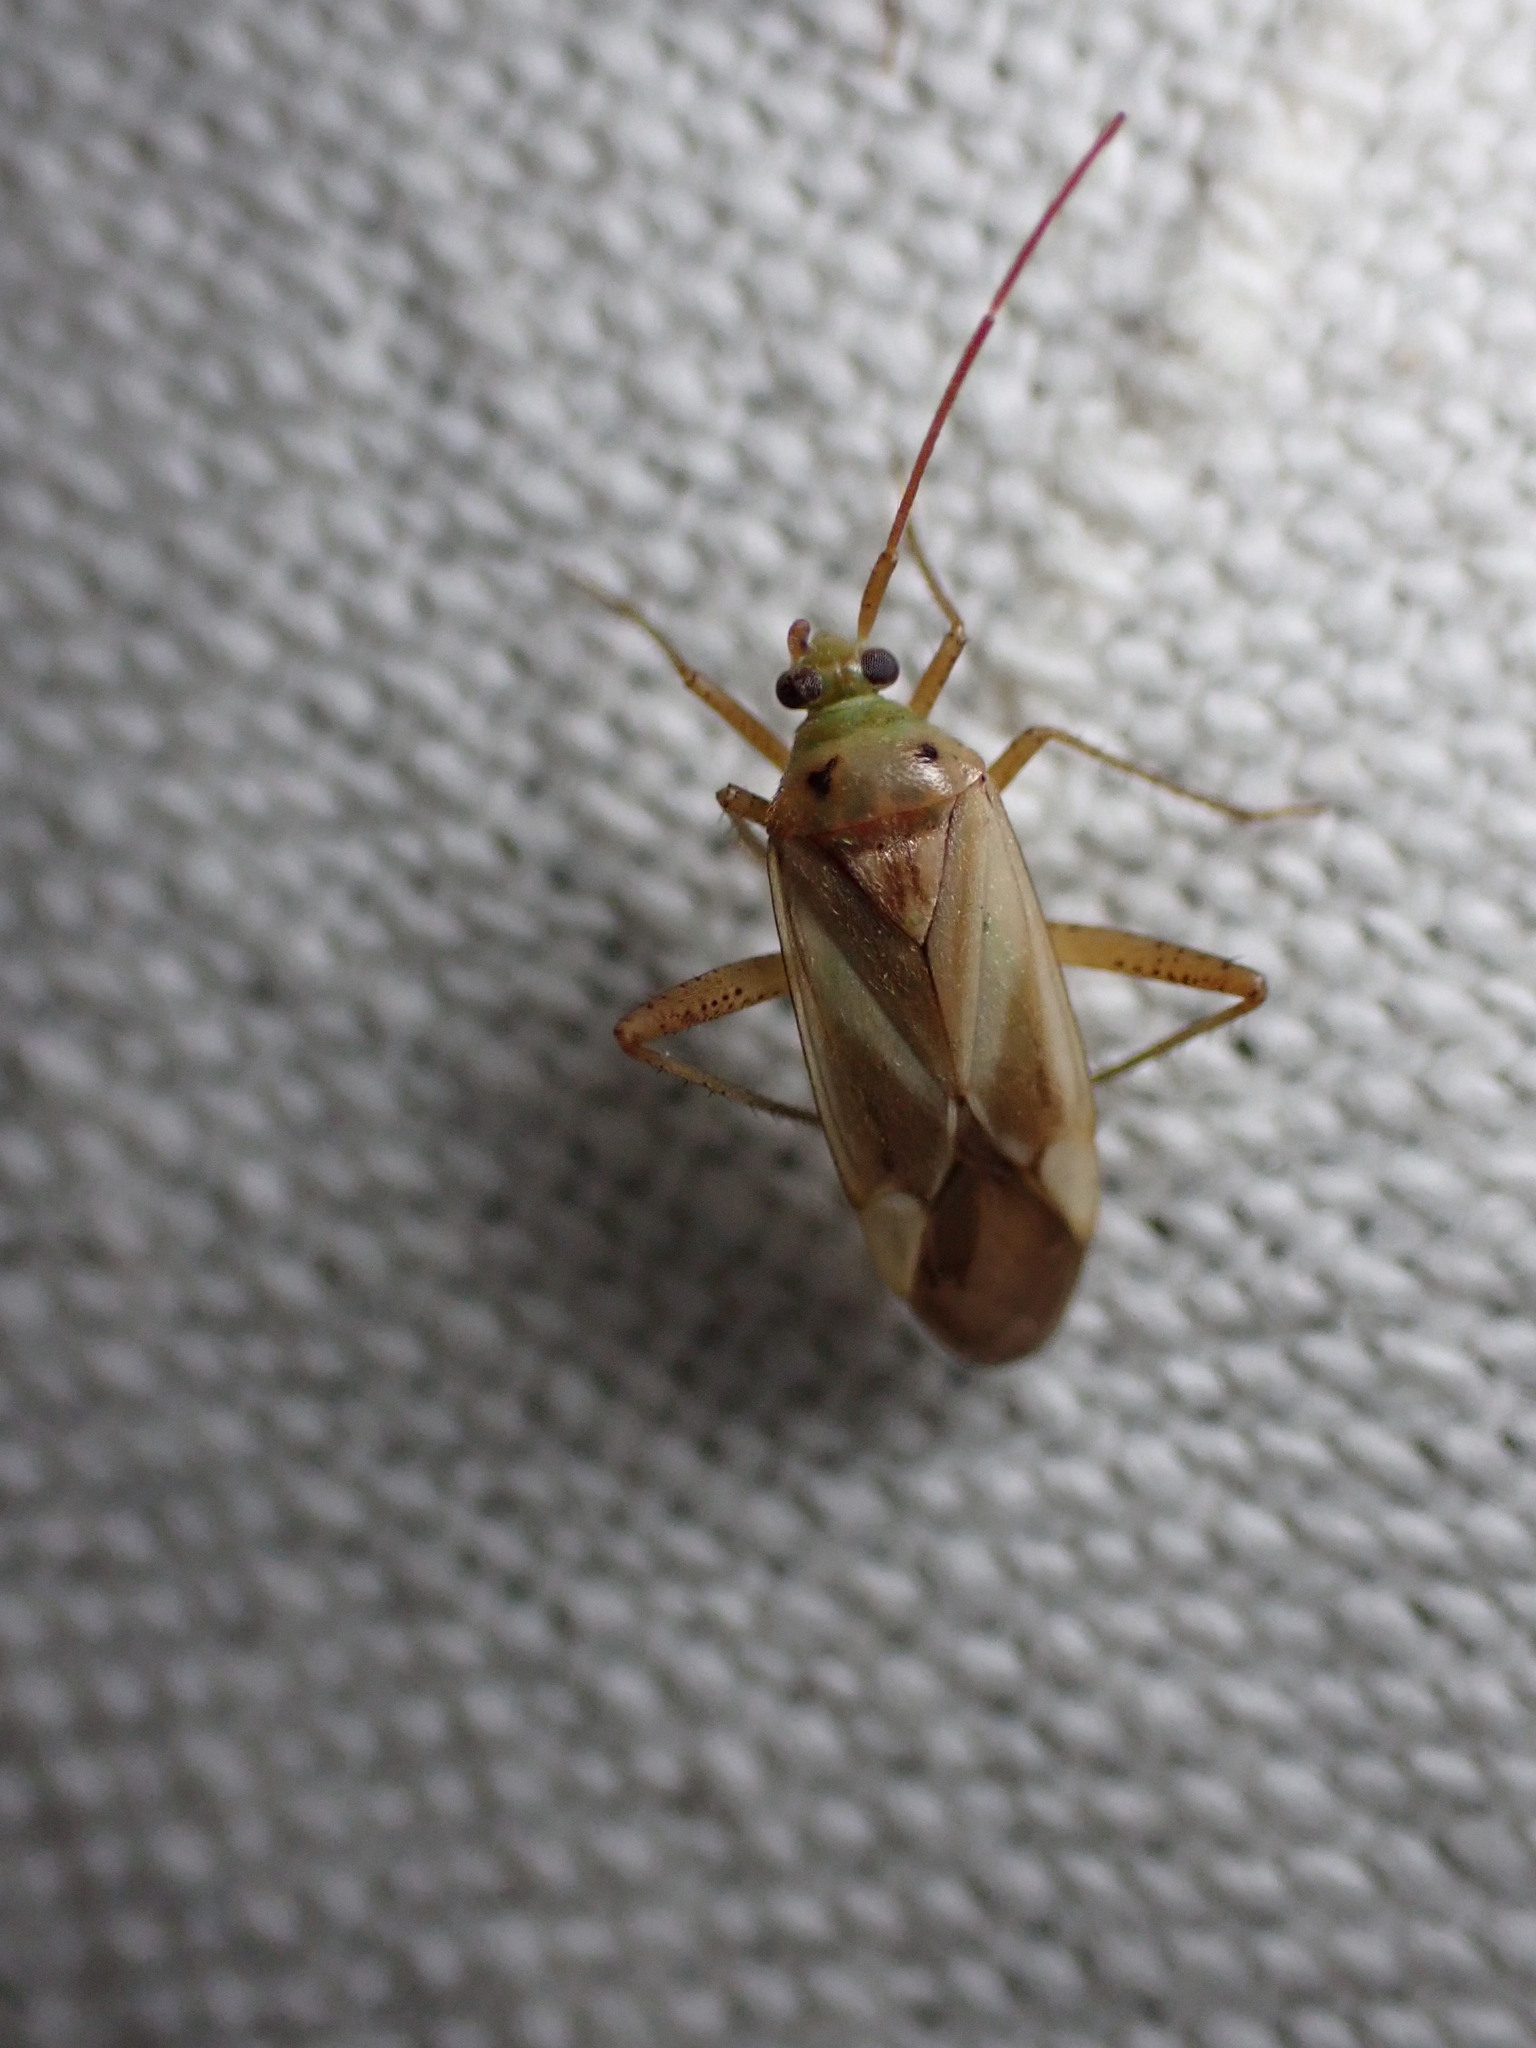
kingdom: Animalia
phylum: Arthropoda
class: Insecta
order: Hemiptera
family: Miridae
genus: Adelphocoris
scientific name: Adelphocoris lineolatus
